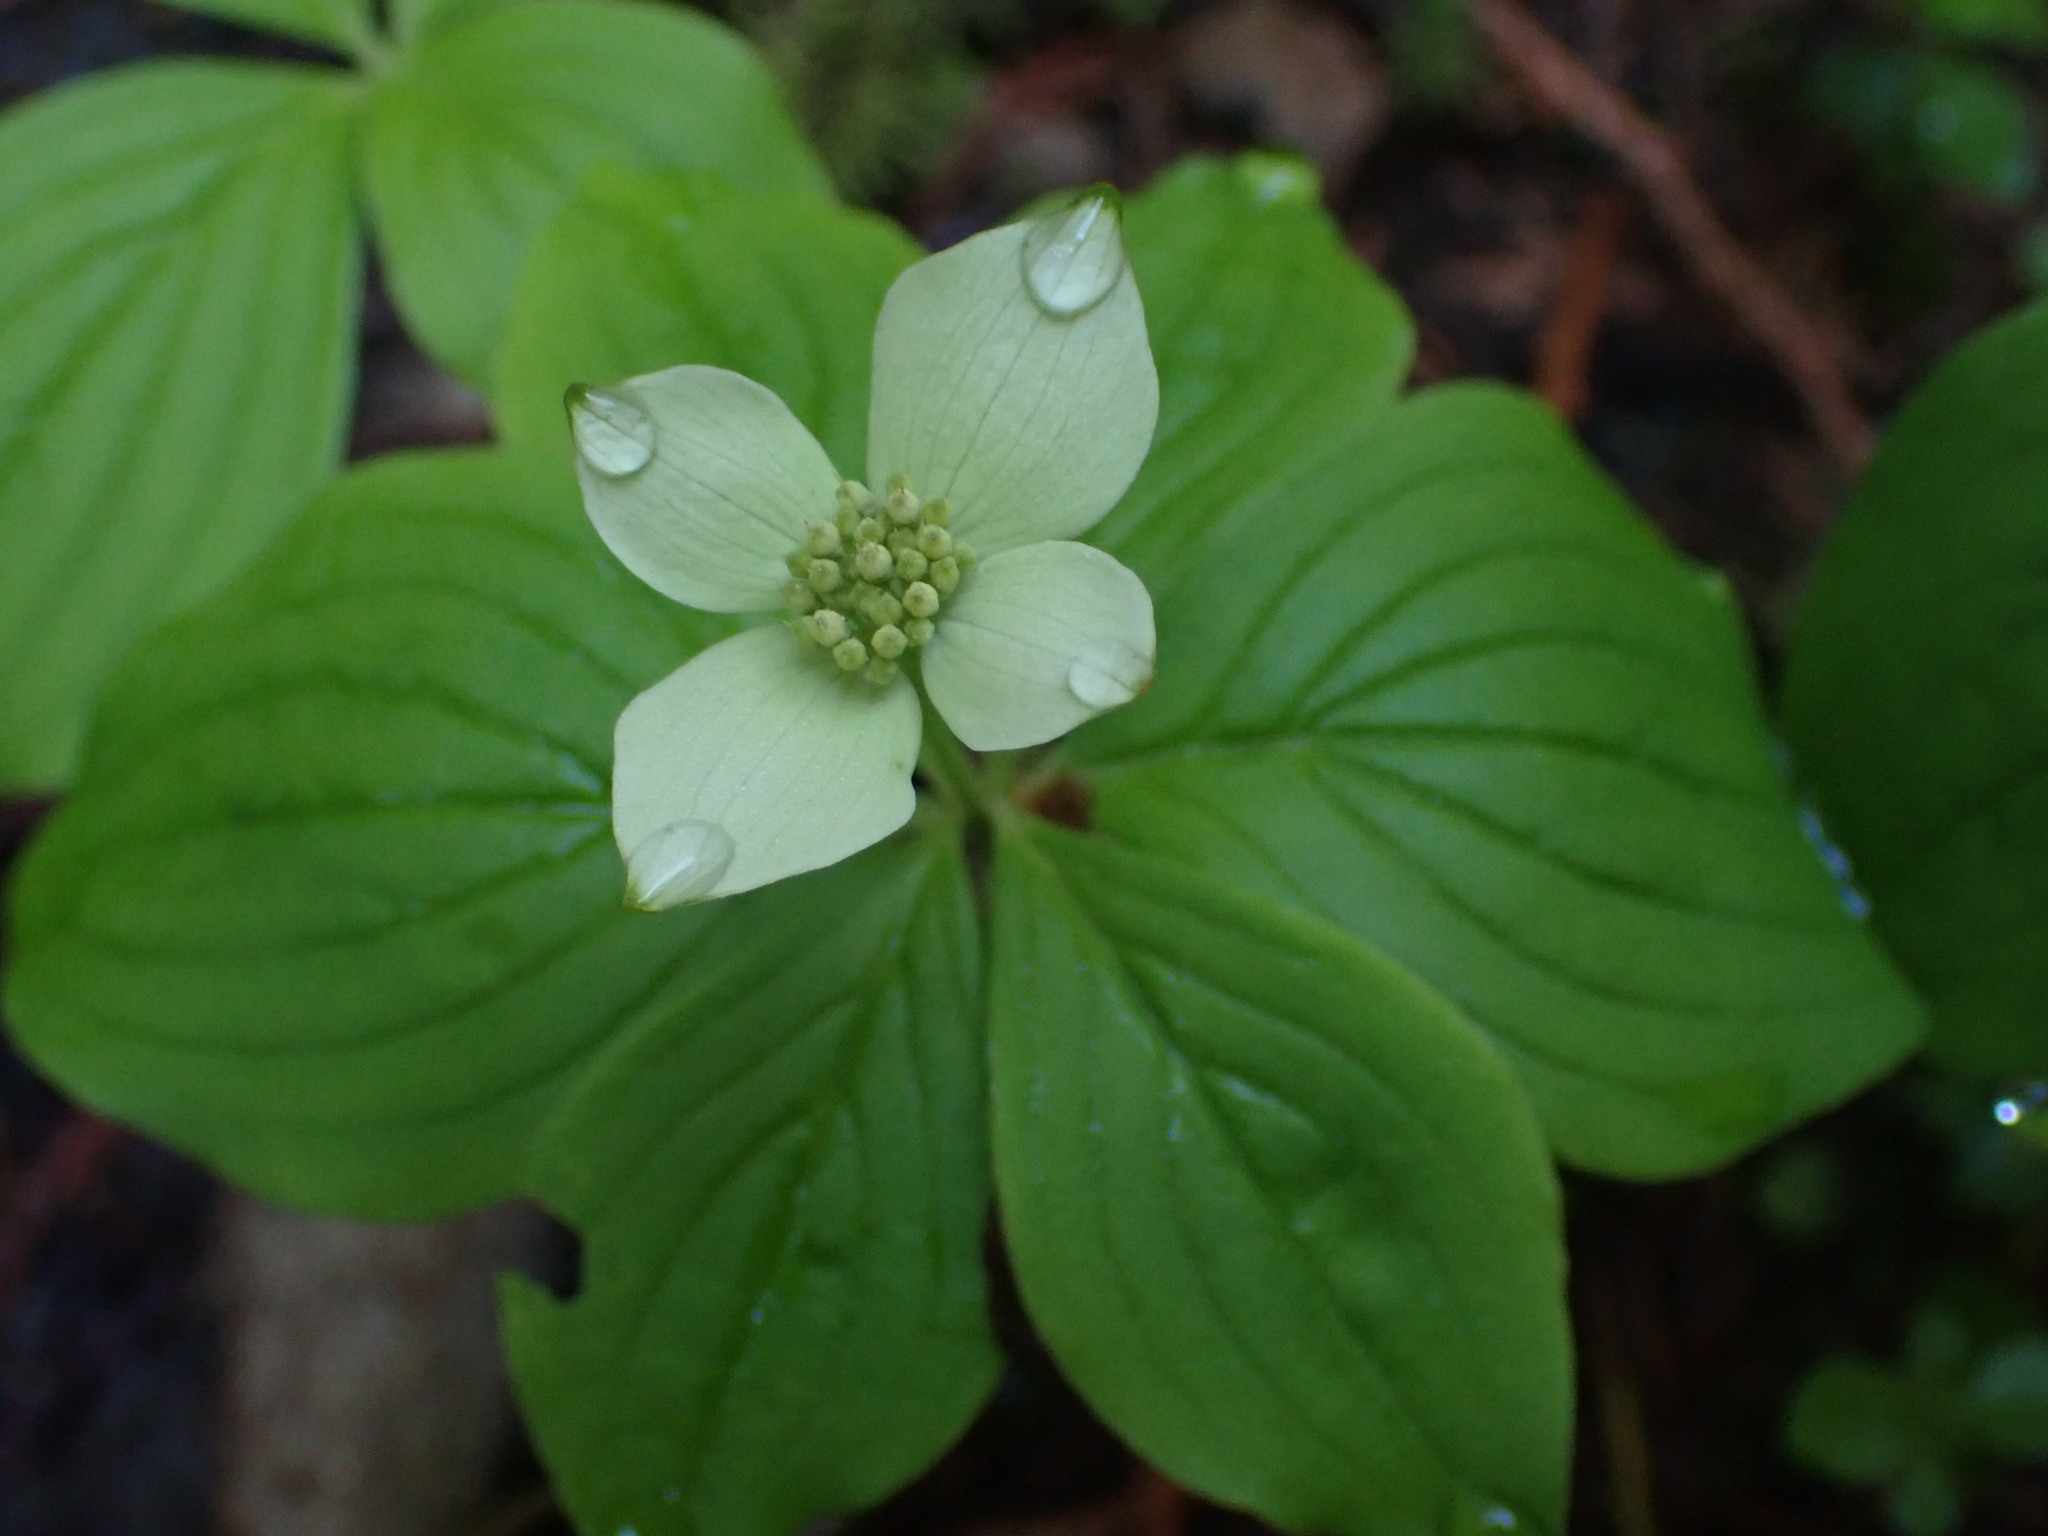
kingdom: Plantae
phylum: Tracheophyta
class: Magnoliopsida
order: Cornales
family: Cornaceae
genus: Cornus
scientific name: Cornus canadensis
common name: Creeping dogwood
